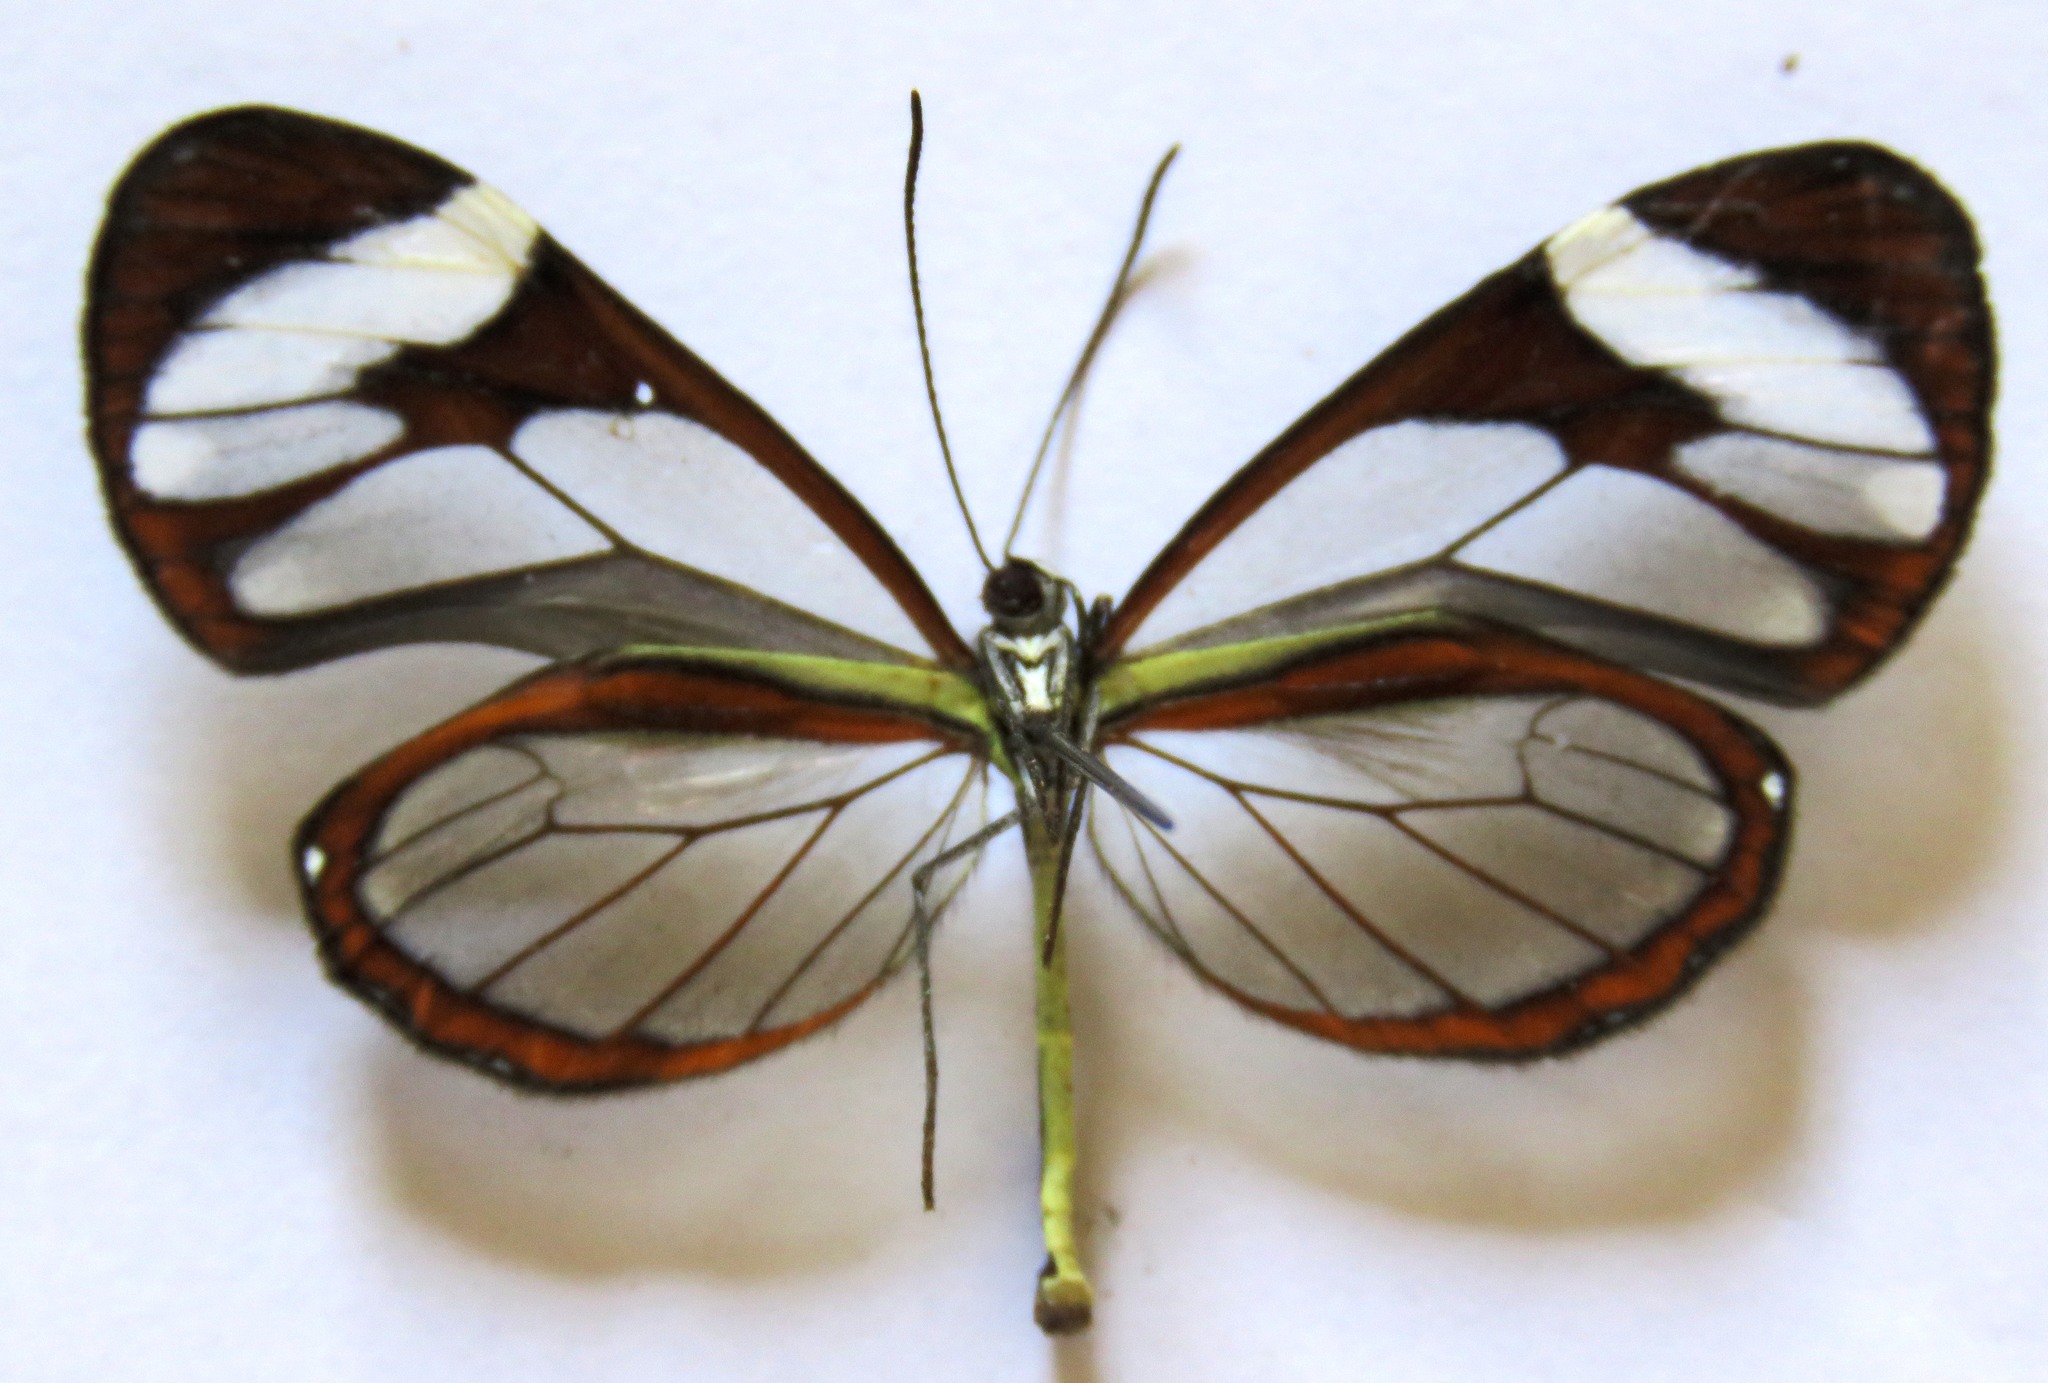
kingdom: Animalia
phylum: Arthropoda
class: Insecta
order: Lepidoptera
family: Nymphalidae
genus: Ithomia
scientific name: Ithomia patilla
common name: Patilla clearwing
